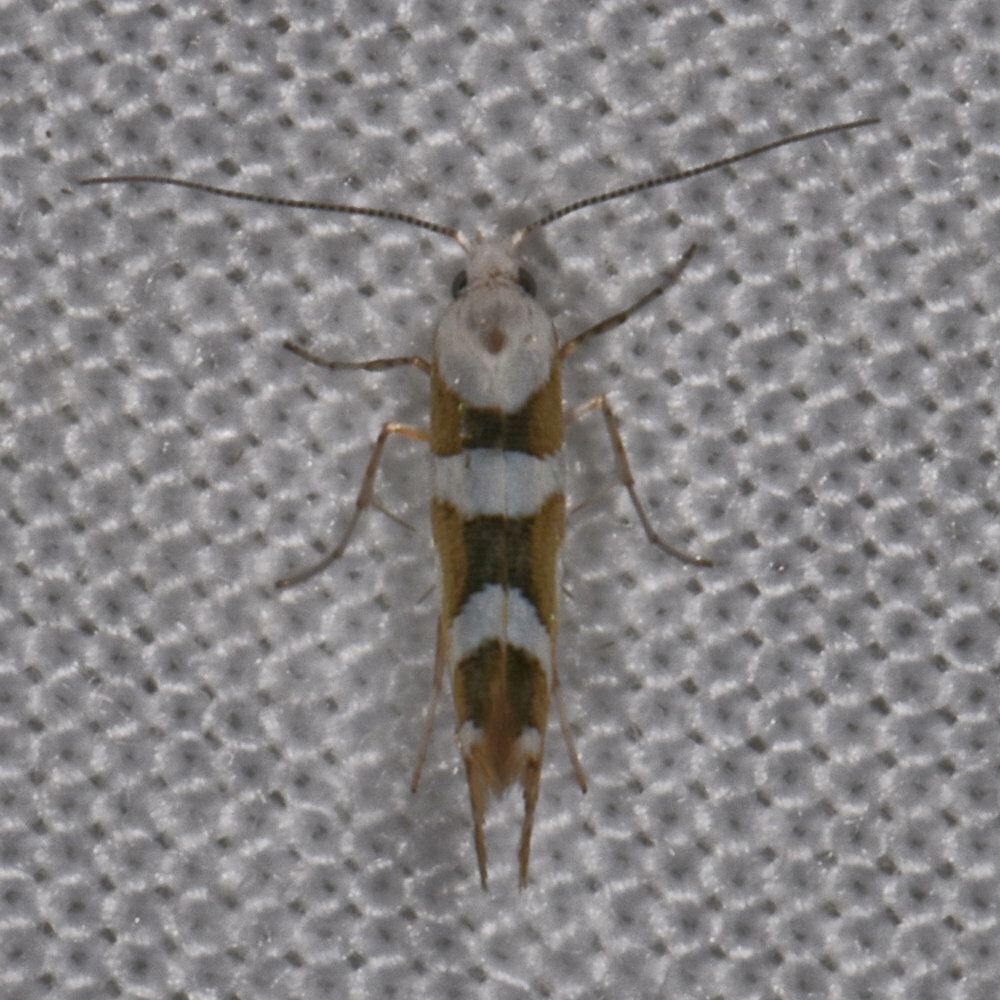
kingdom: Animalia
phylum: Arthropoda
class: Insecta
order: Lepidoptera
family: Argyresthiidae
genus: Argyresthia
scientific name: Argyresthia calliphanes
